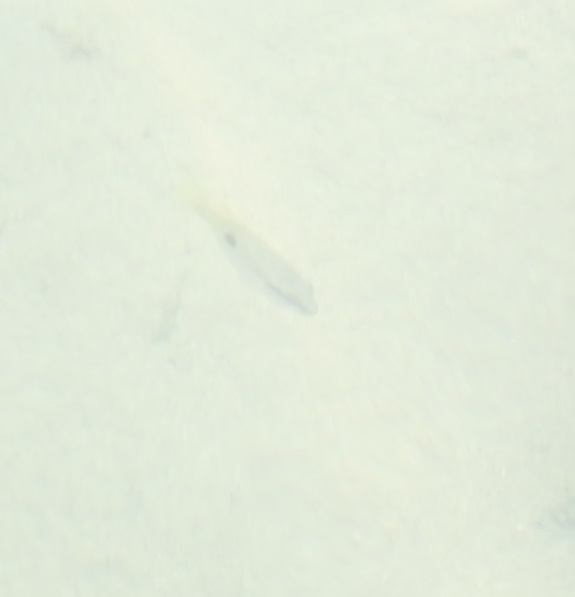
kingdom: Animalia
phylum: Chordata
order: Perciformes
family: Lutjanidae
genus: Lutjanus
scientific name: Lutjanus fulviflamma
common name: Blackspot snapper
